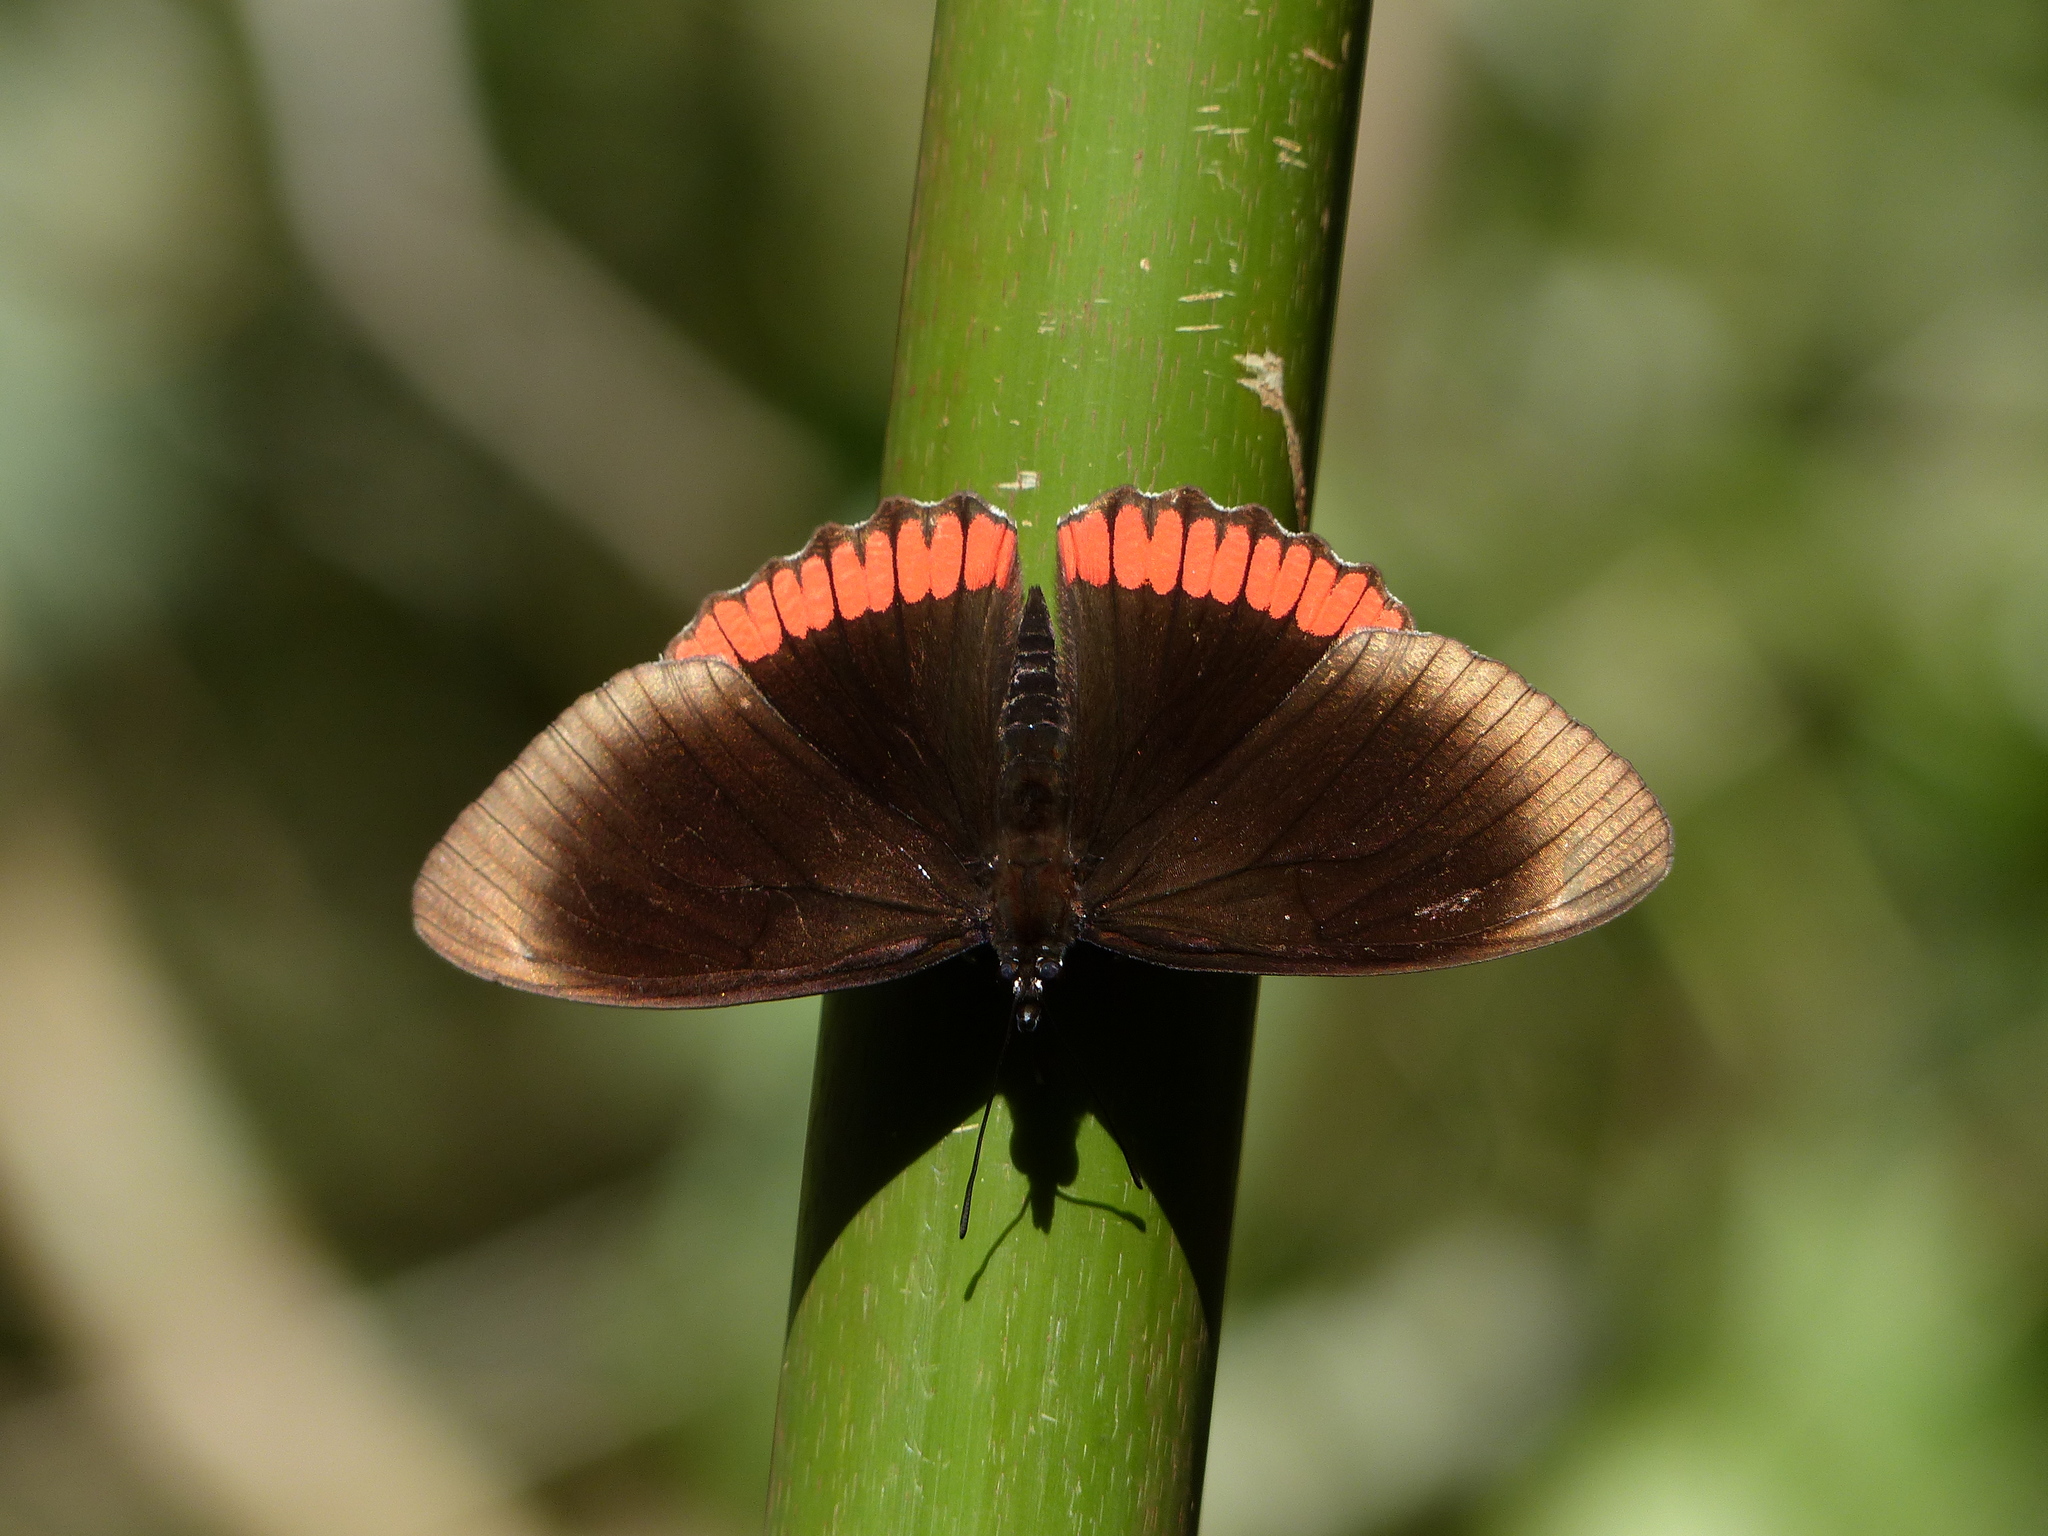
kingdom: Animalia
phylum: Arthropoda
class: Insecta
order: Lepidoptera
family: Sesiidae
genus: Sesia
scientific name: Sesia Biblis hyperia
